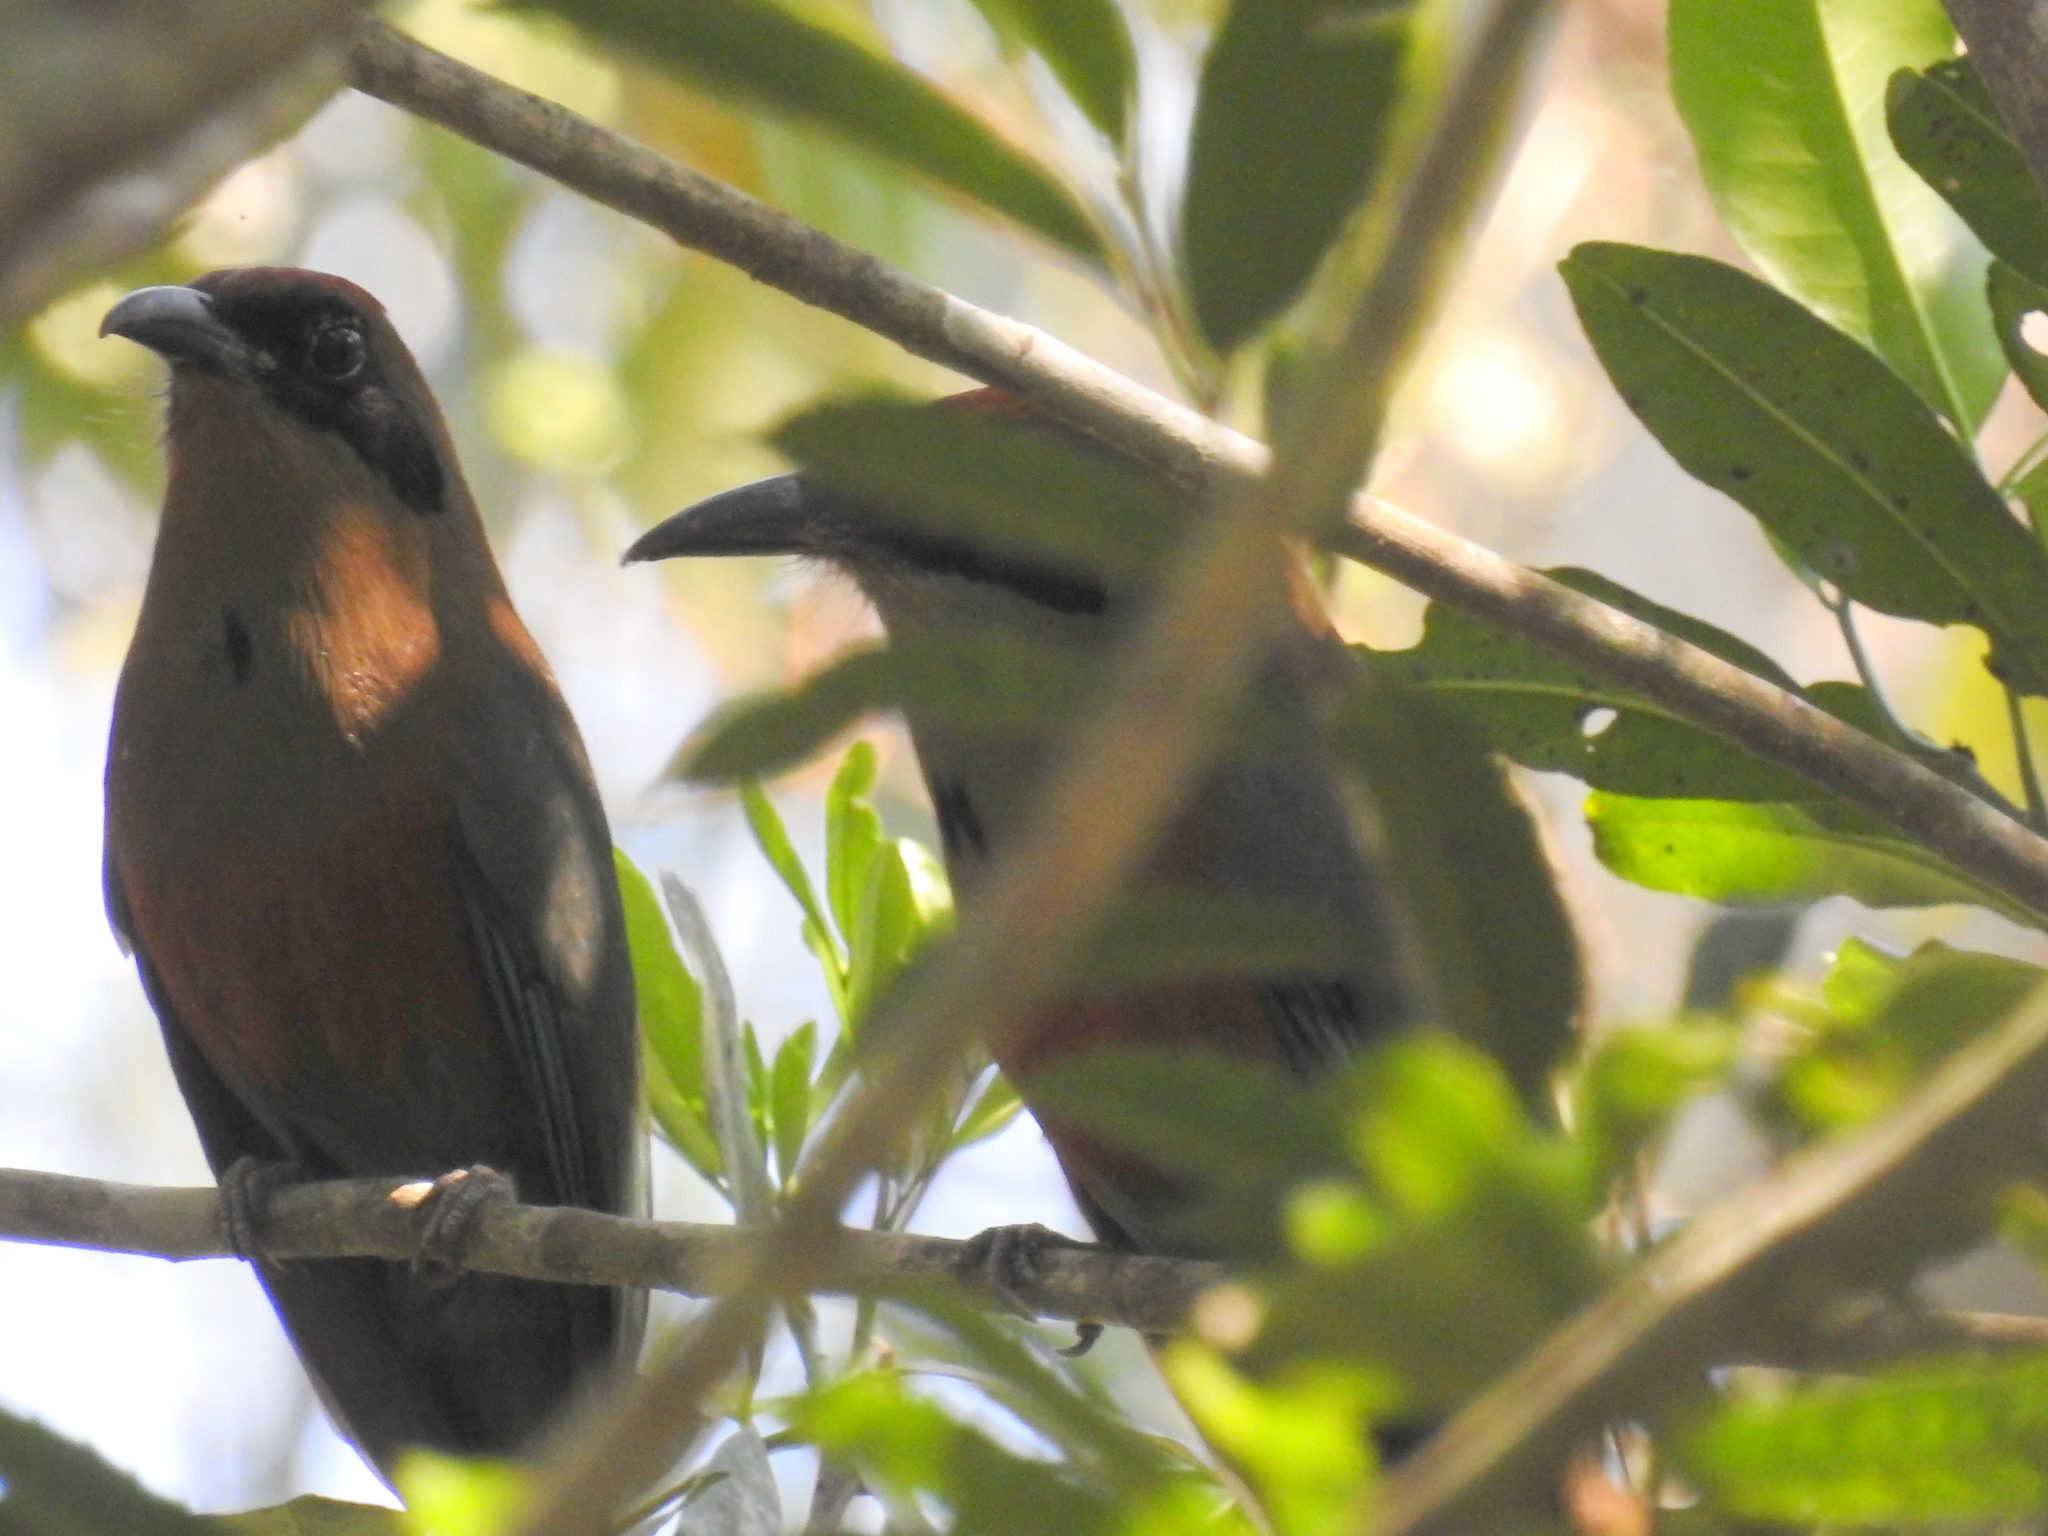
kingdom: Animalia
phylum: Chordata
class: Aves
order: Coraciiformes
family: Momotidae
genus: Baryphthengus
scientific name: Baryphthengus ruficapillus
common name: Rufous-capped motmot
